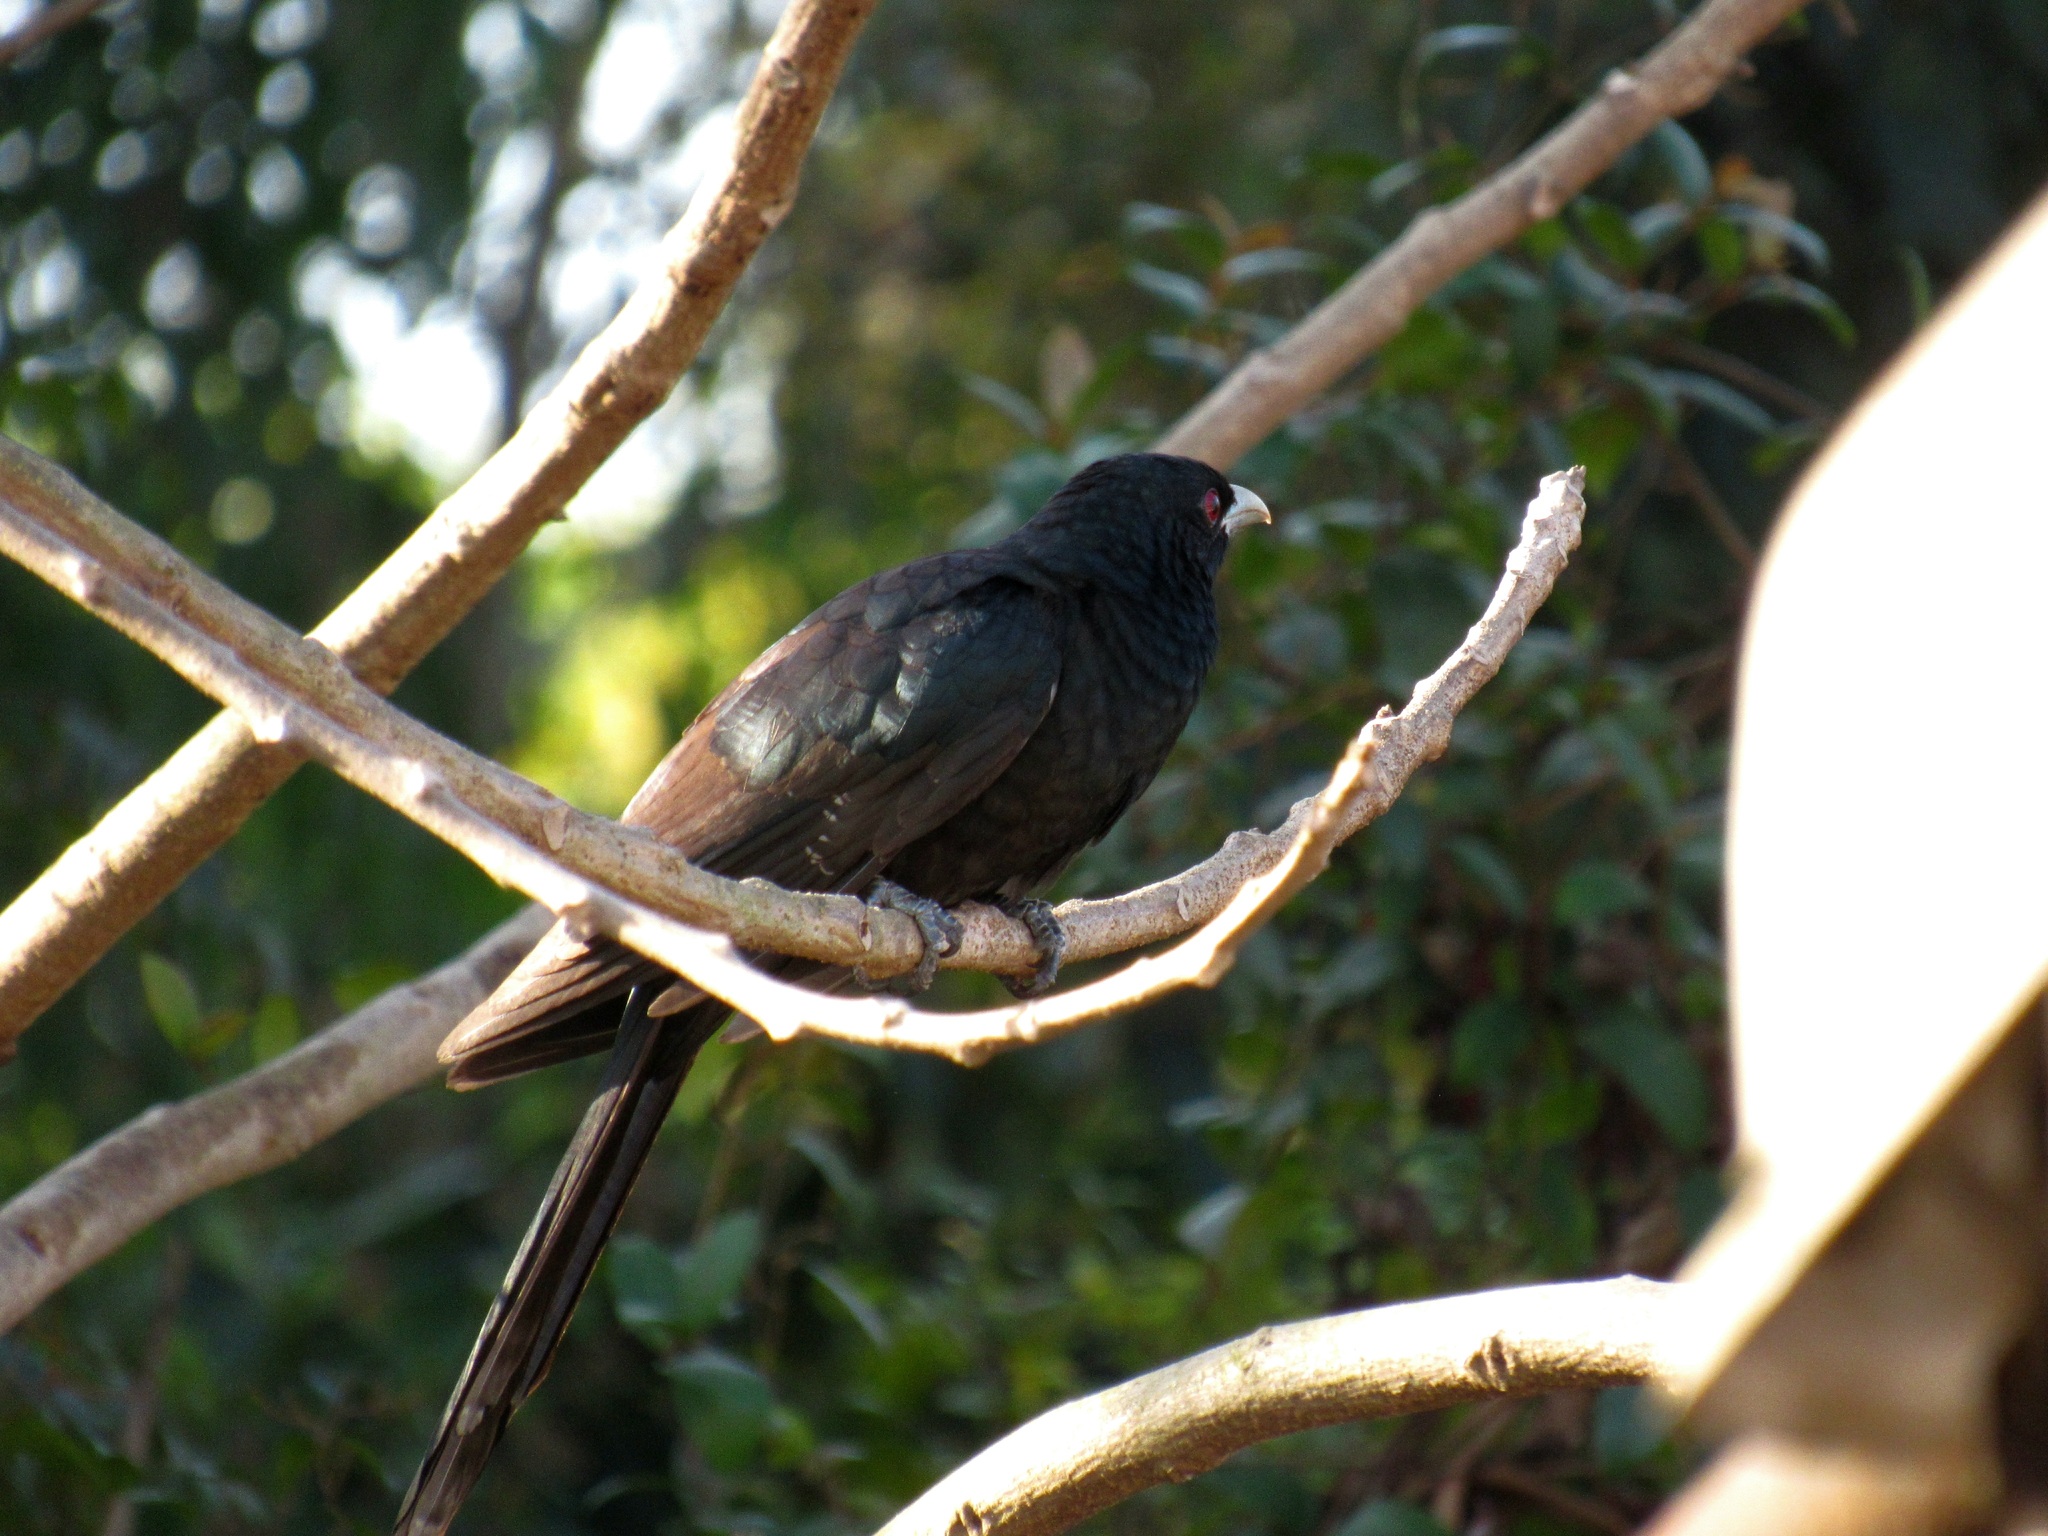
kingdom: Animalia
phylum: Chordata
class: Aves
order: Cuculiformes
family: Cuculidae
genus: Eudynamys
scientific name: Eudynamys scolopaceus
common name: Asian koel
